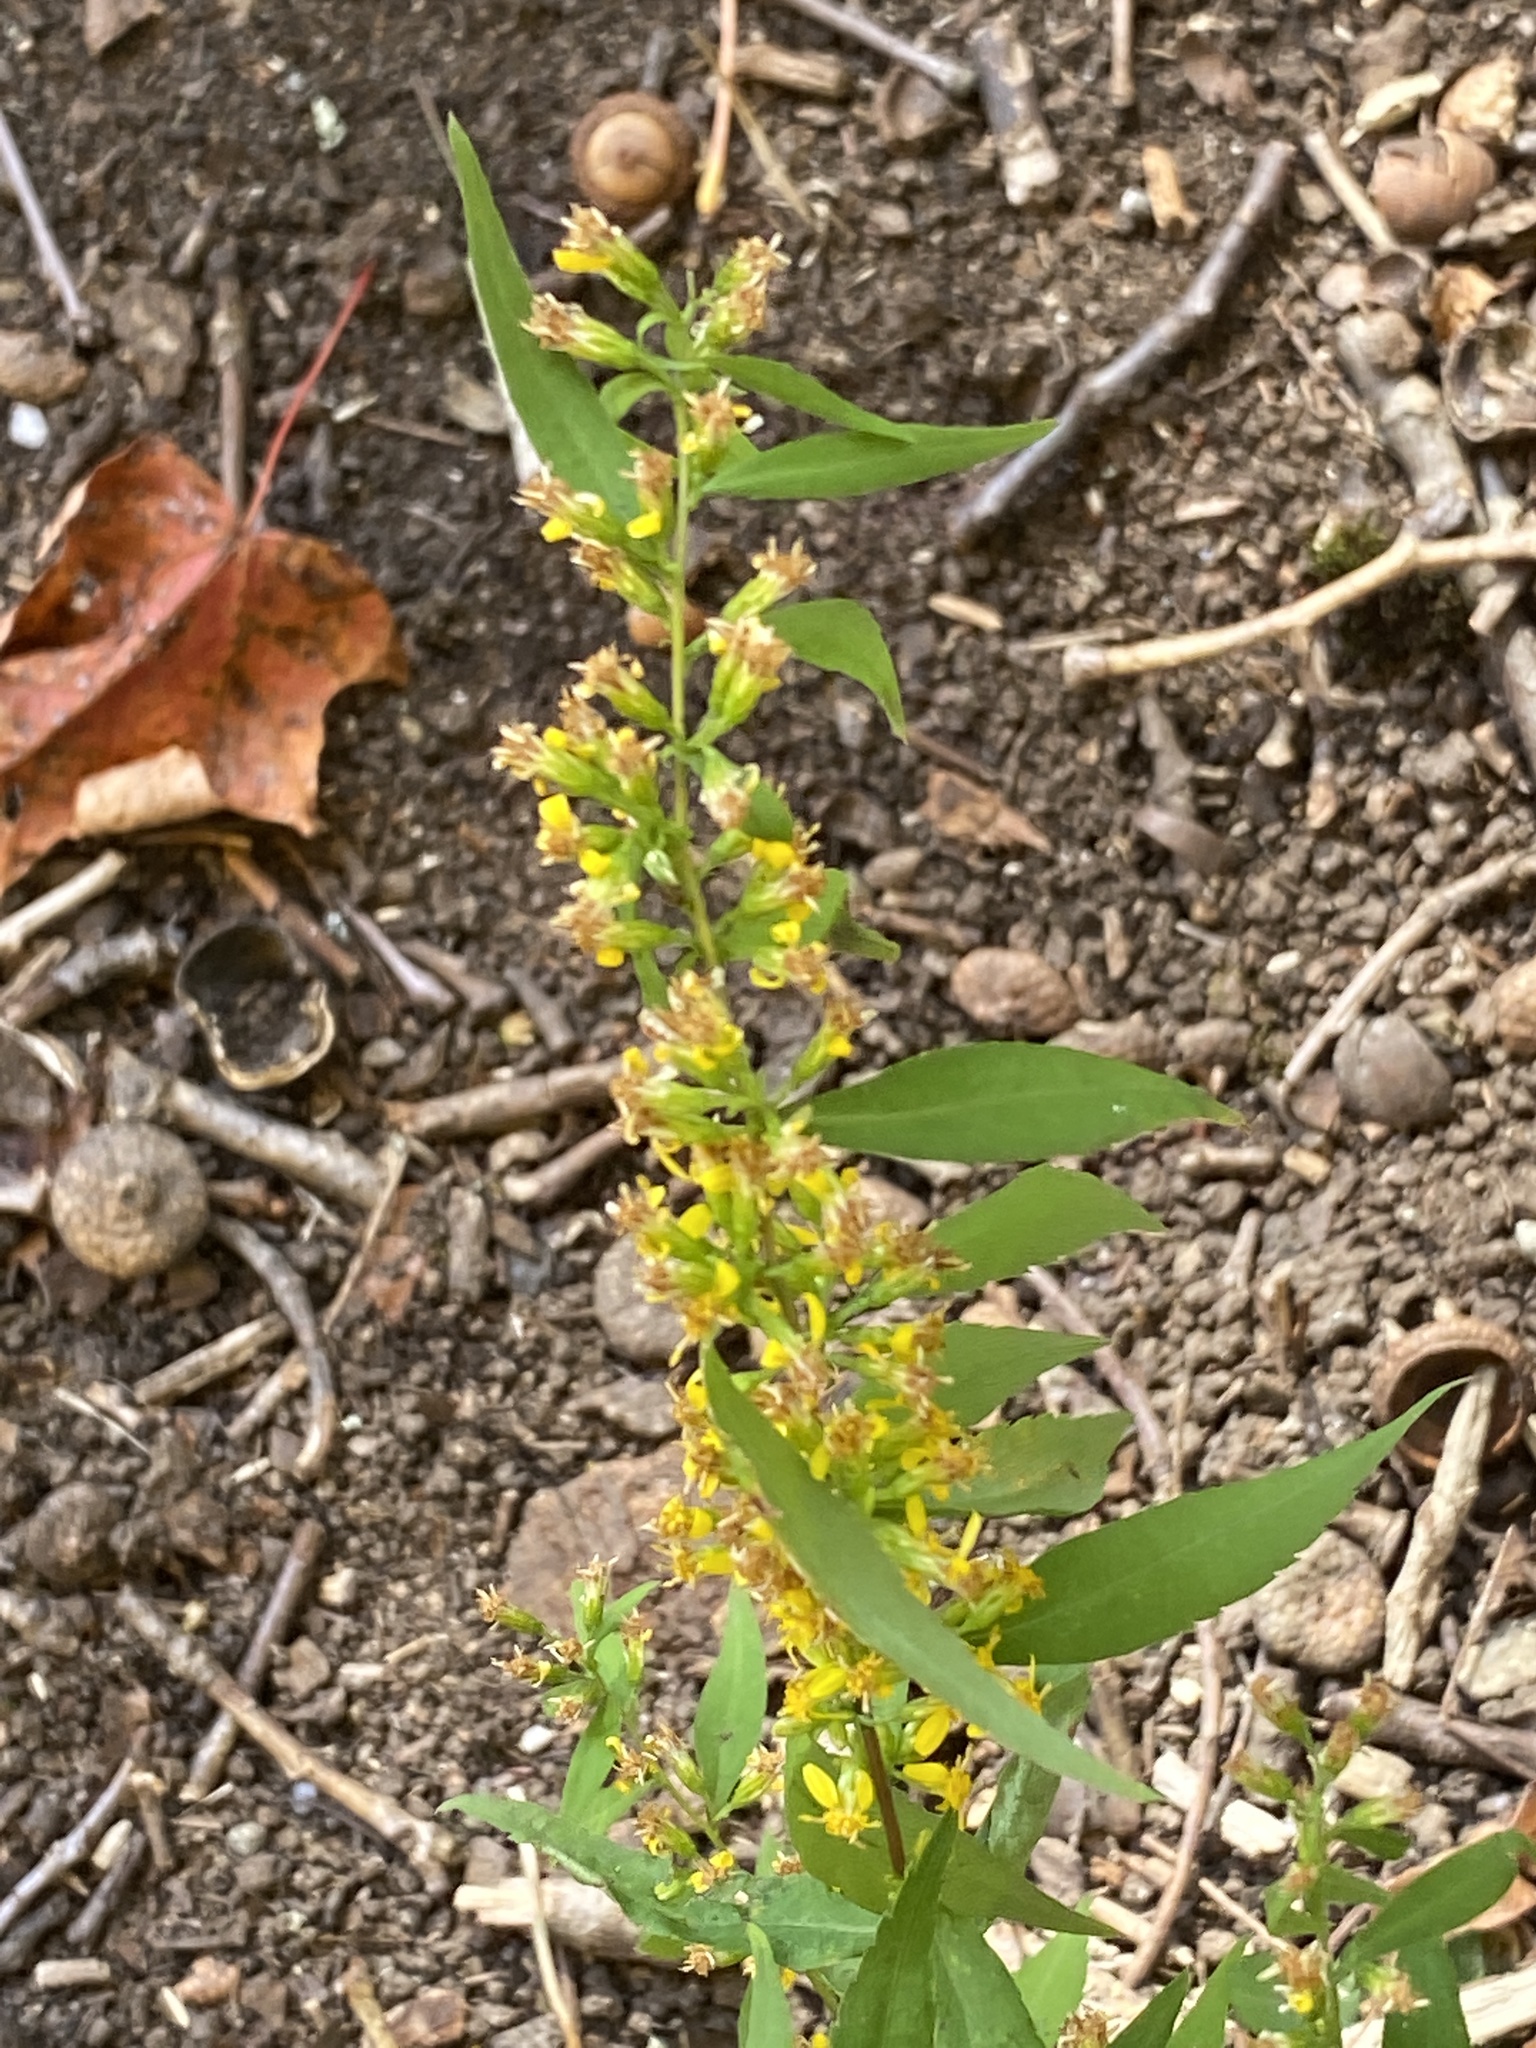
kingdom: Plantae
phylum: Tracheophyta
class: Magnoliopsida
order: Asterales
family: Asteraceae
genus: Solidago
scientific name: Solidago caesia
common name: Woodland goldenrod
